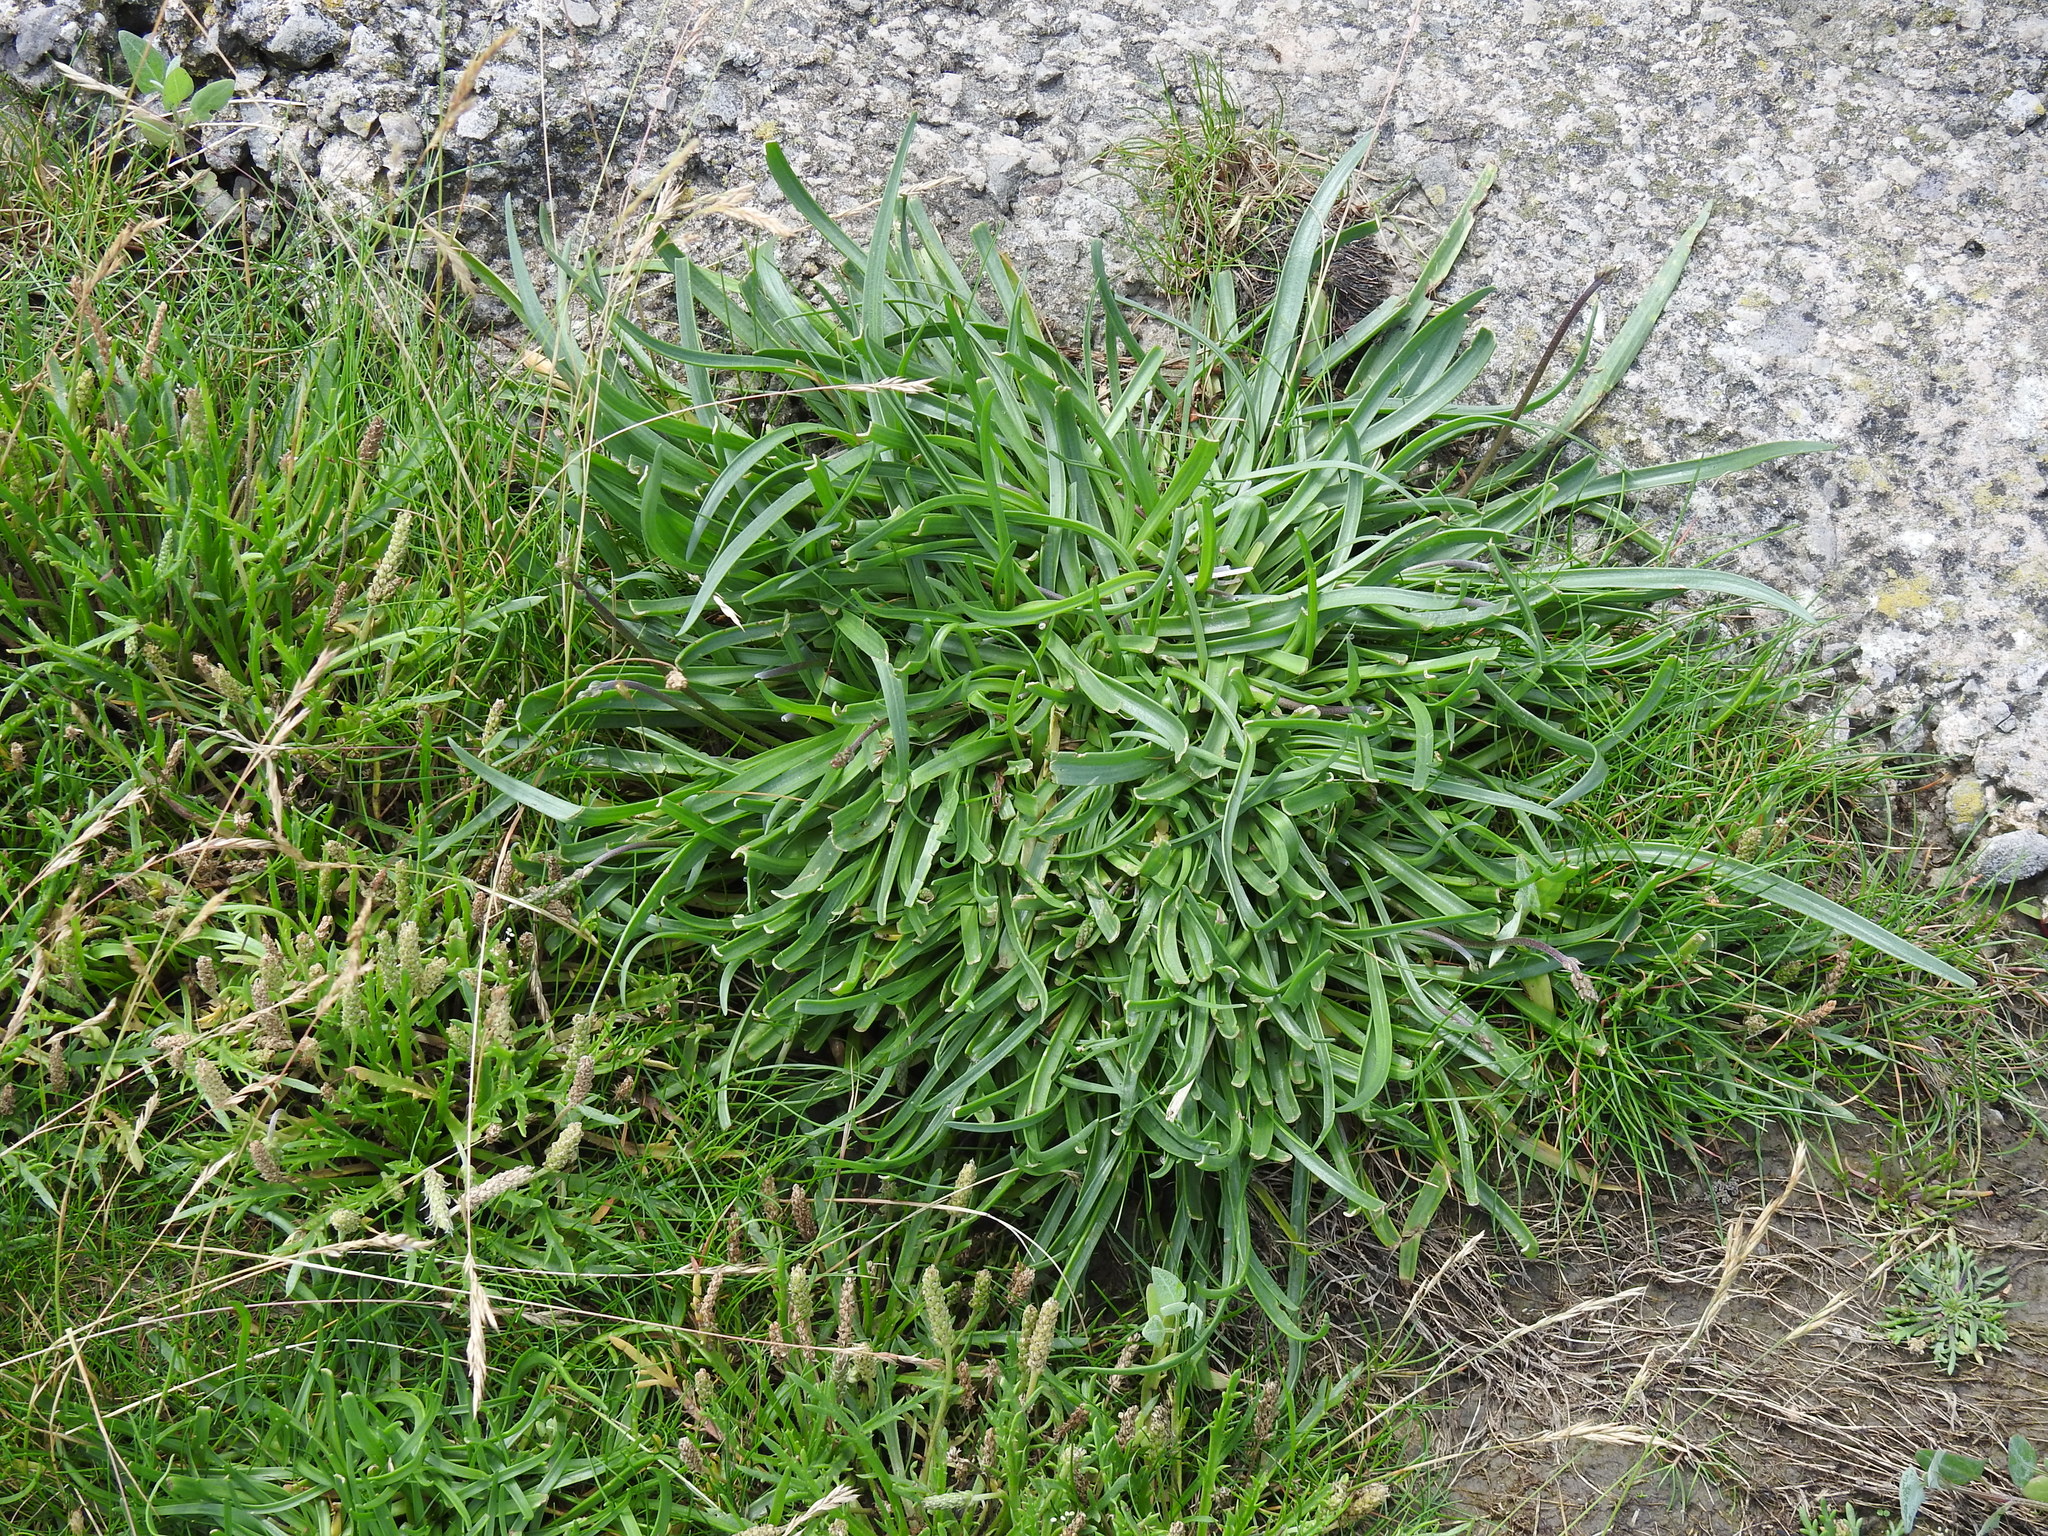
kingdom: Plantae
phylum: Tracheophyta
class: Magnoliopsida
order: Lamiales
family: Plantaginaceae
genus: Plantago
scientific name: Plantago maritima
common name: Sea plantain
